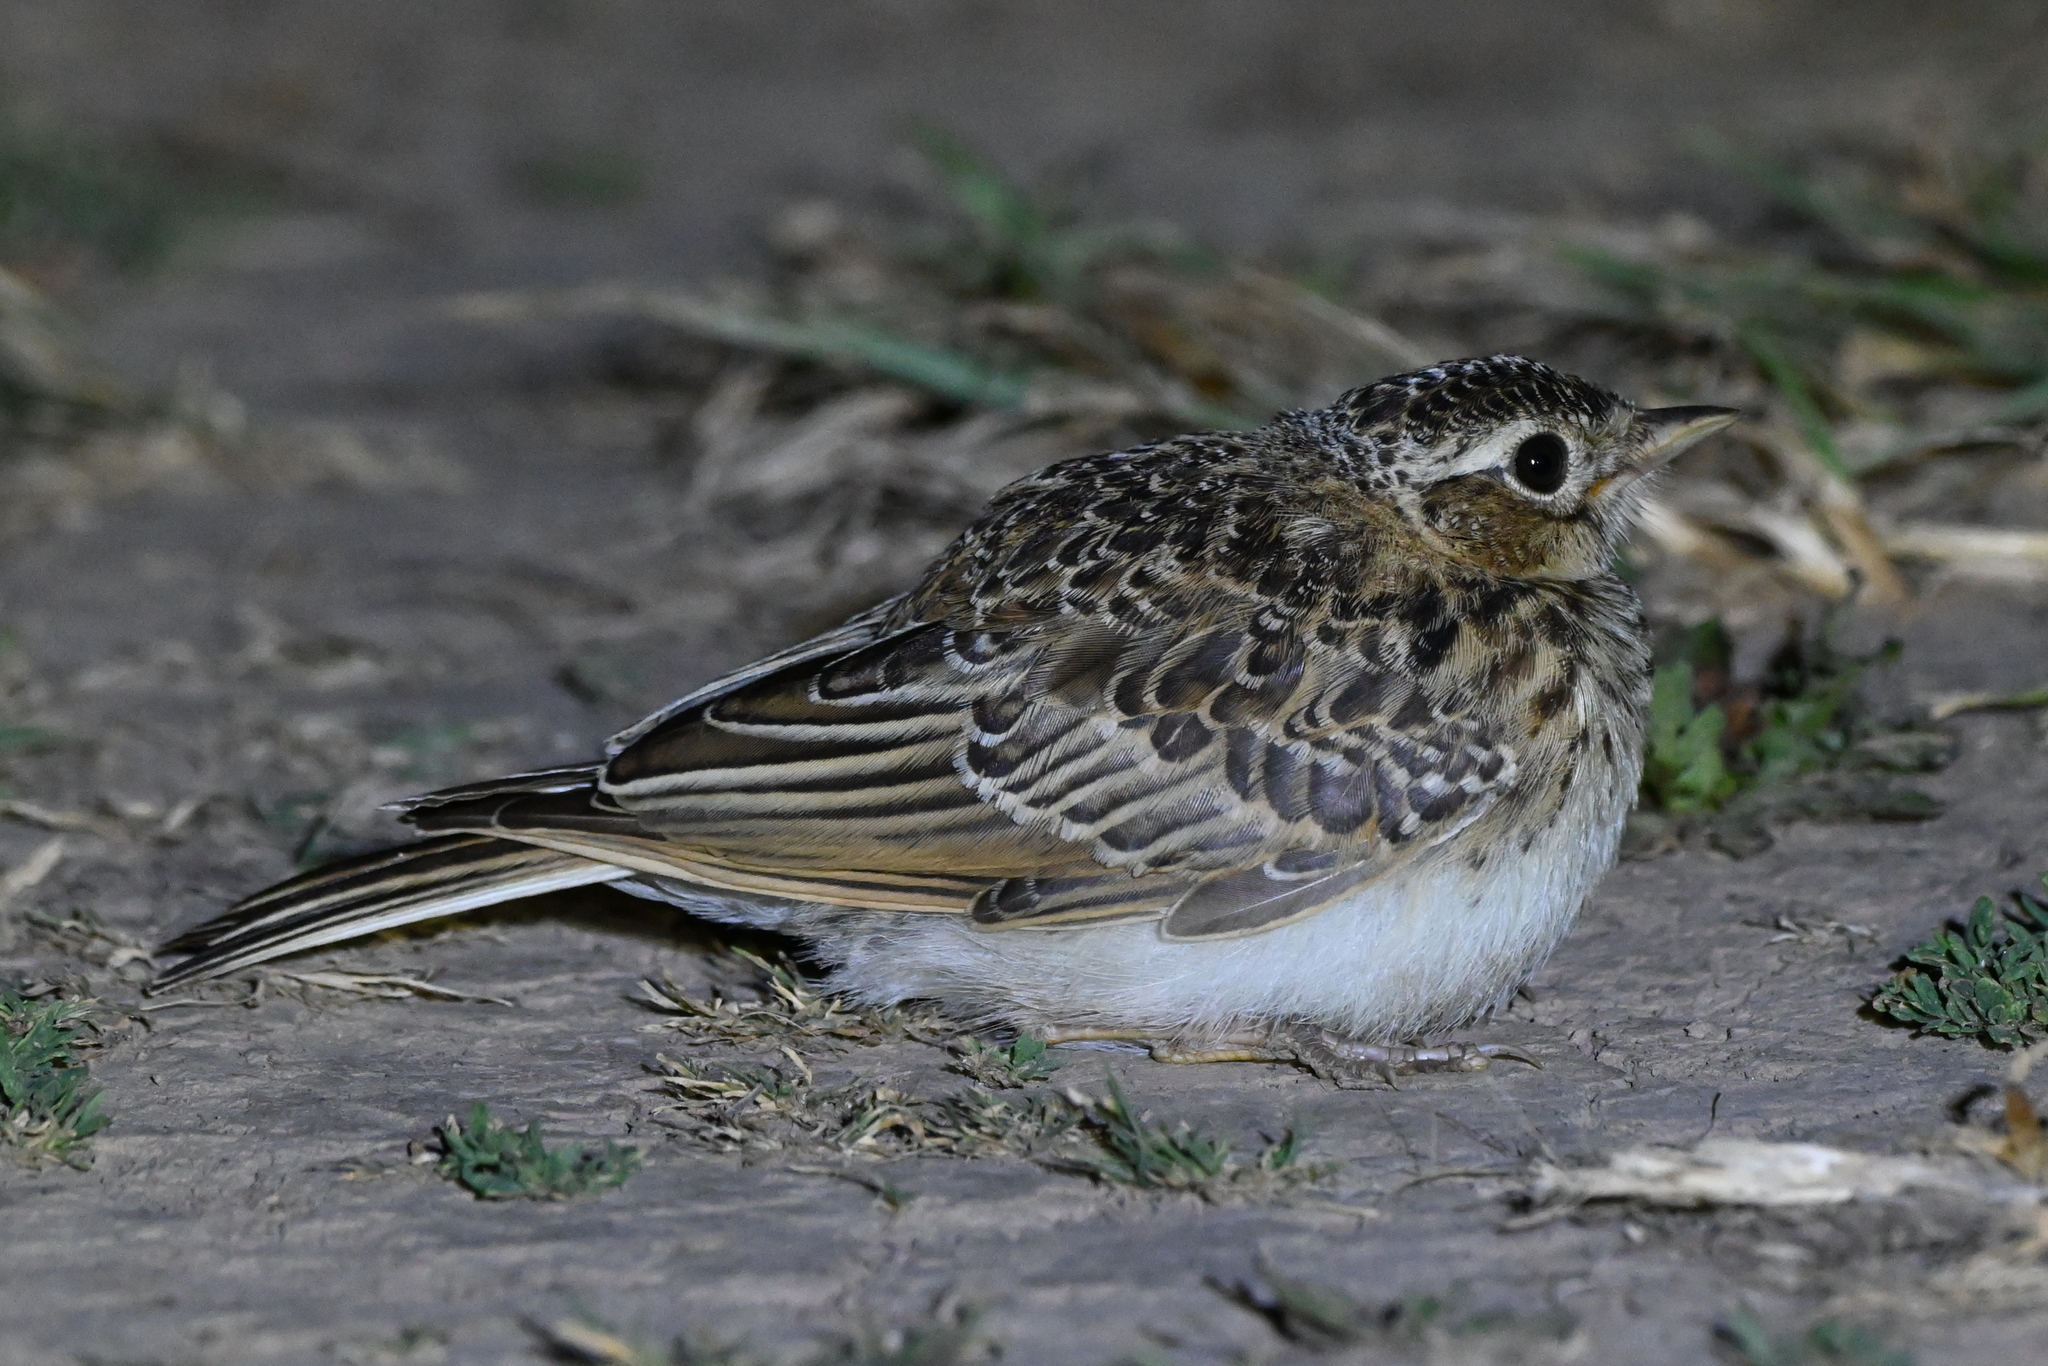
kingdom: Animalia
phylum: Chordata
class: Aves
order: Passeriformes
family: Alaudidae
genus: Alauda
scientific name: Alauda arvensis
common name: Eurasian skylark
